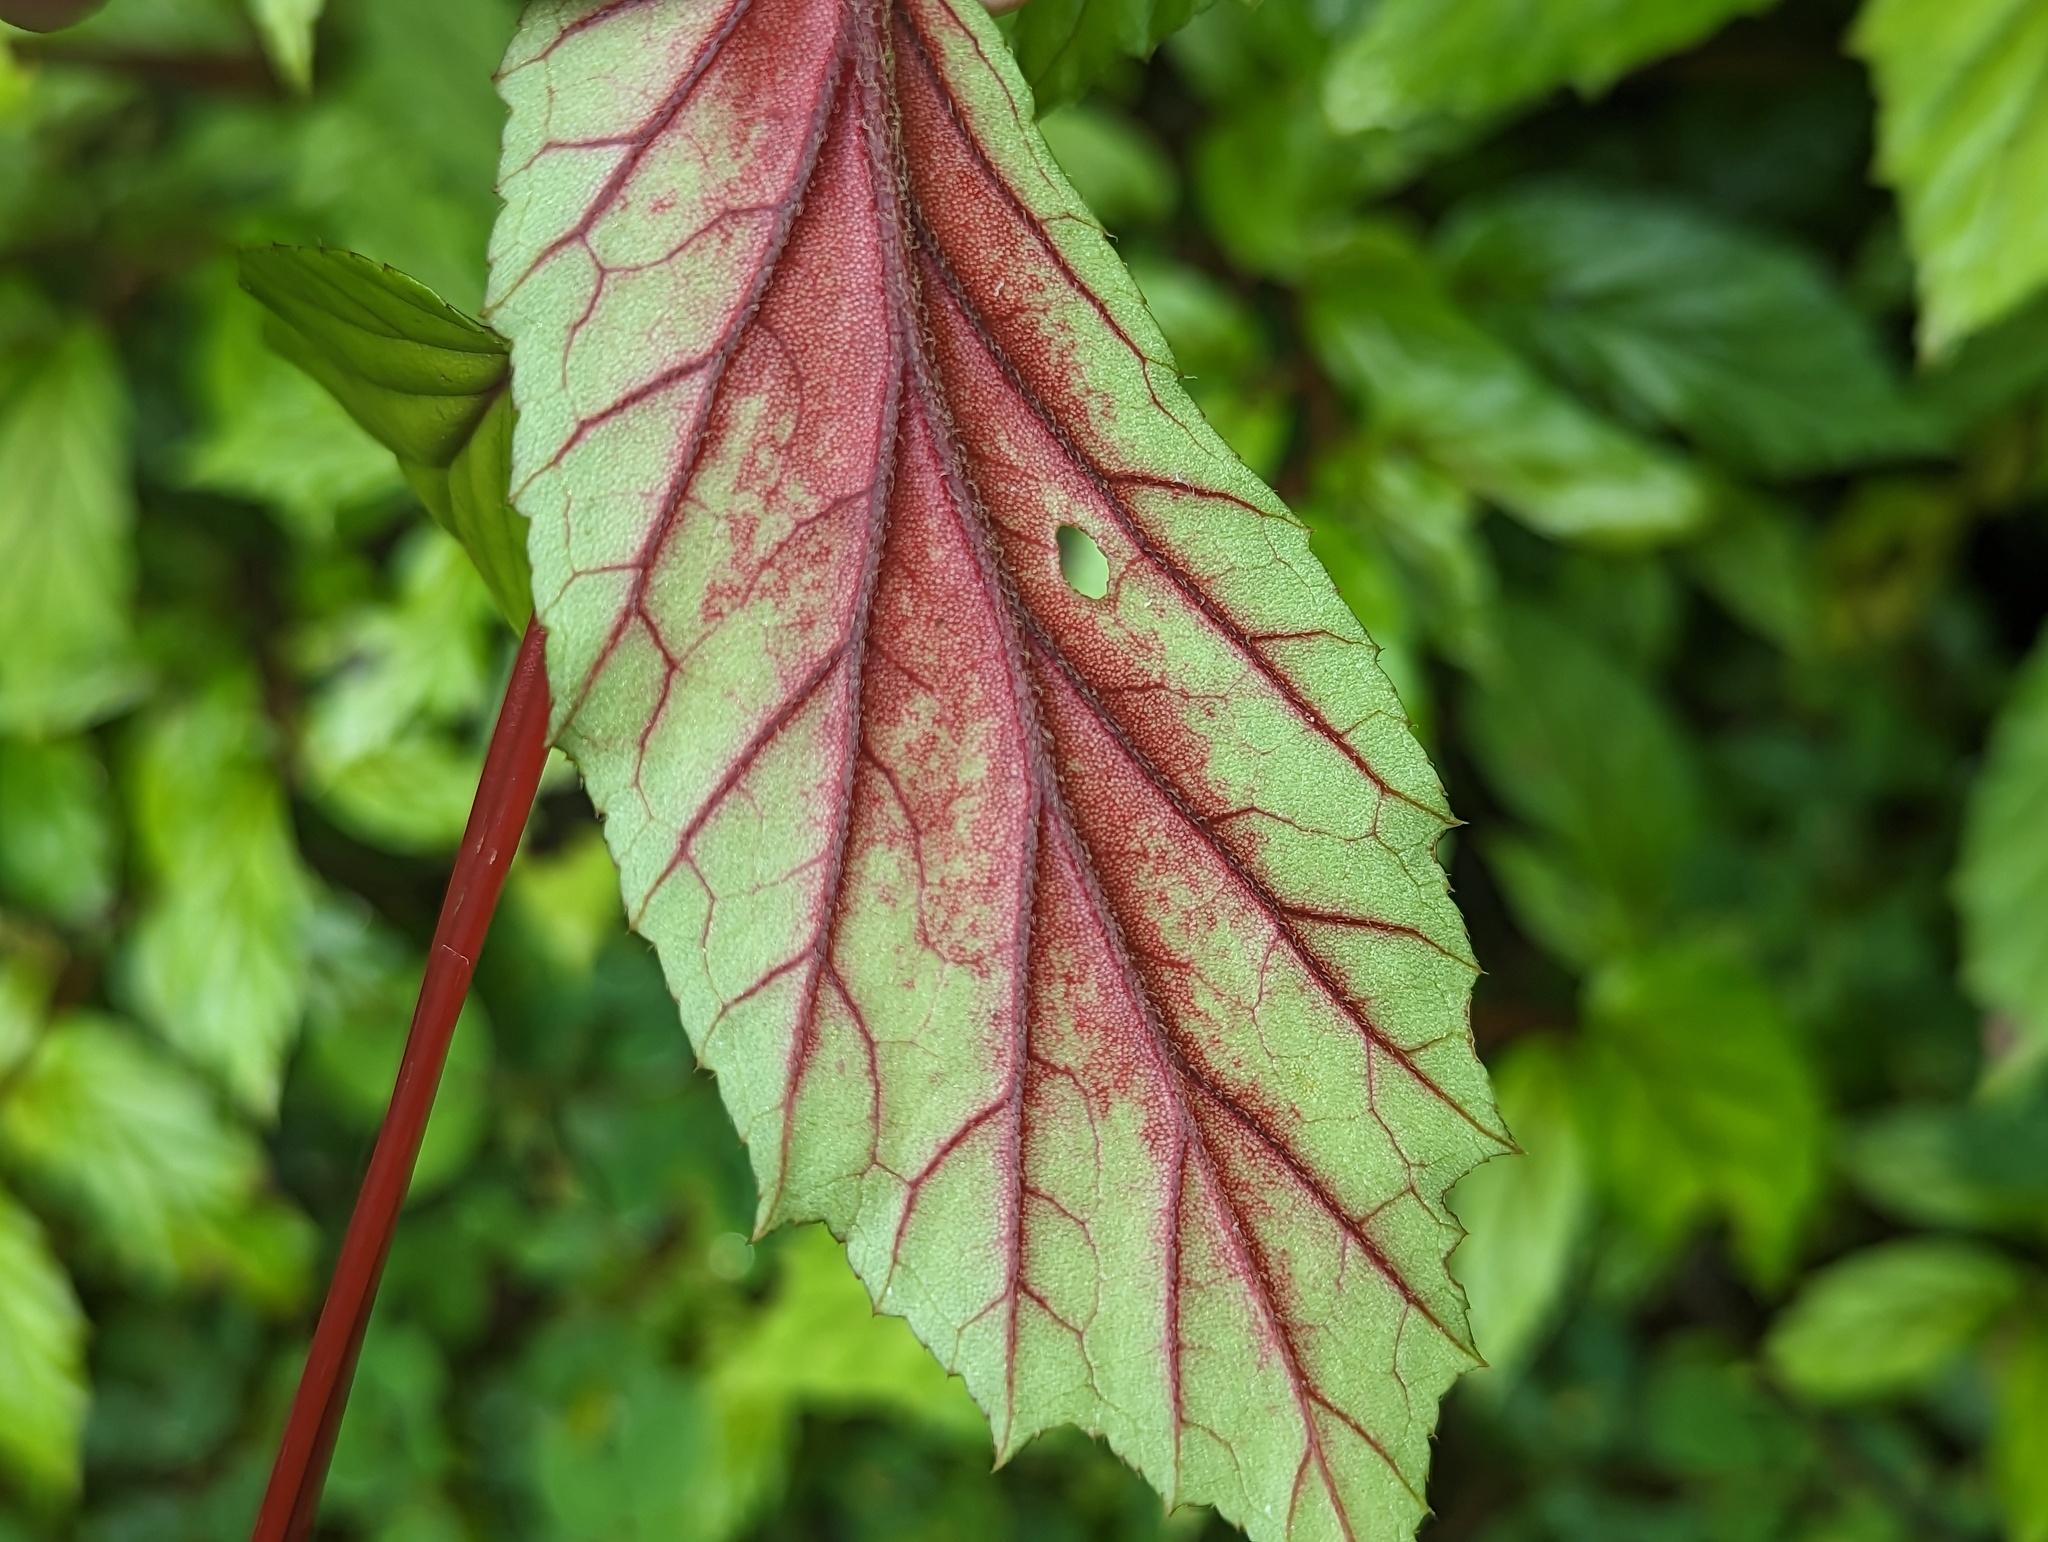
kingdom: Plantae
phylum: Tracheophyta
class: Magnoliopsida
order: Cucurbitales
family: Begoniaceae
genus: Begonia
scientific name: Begonia decandra
